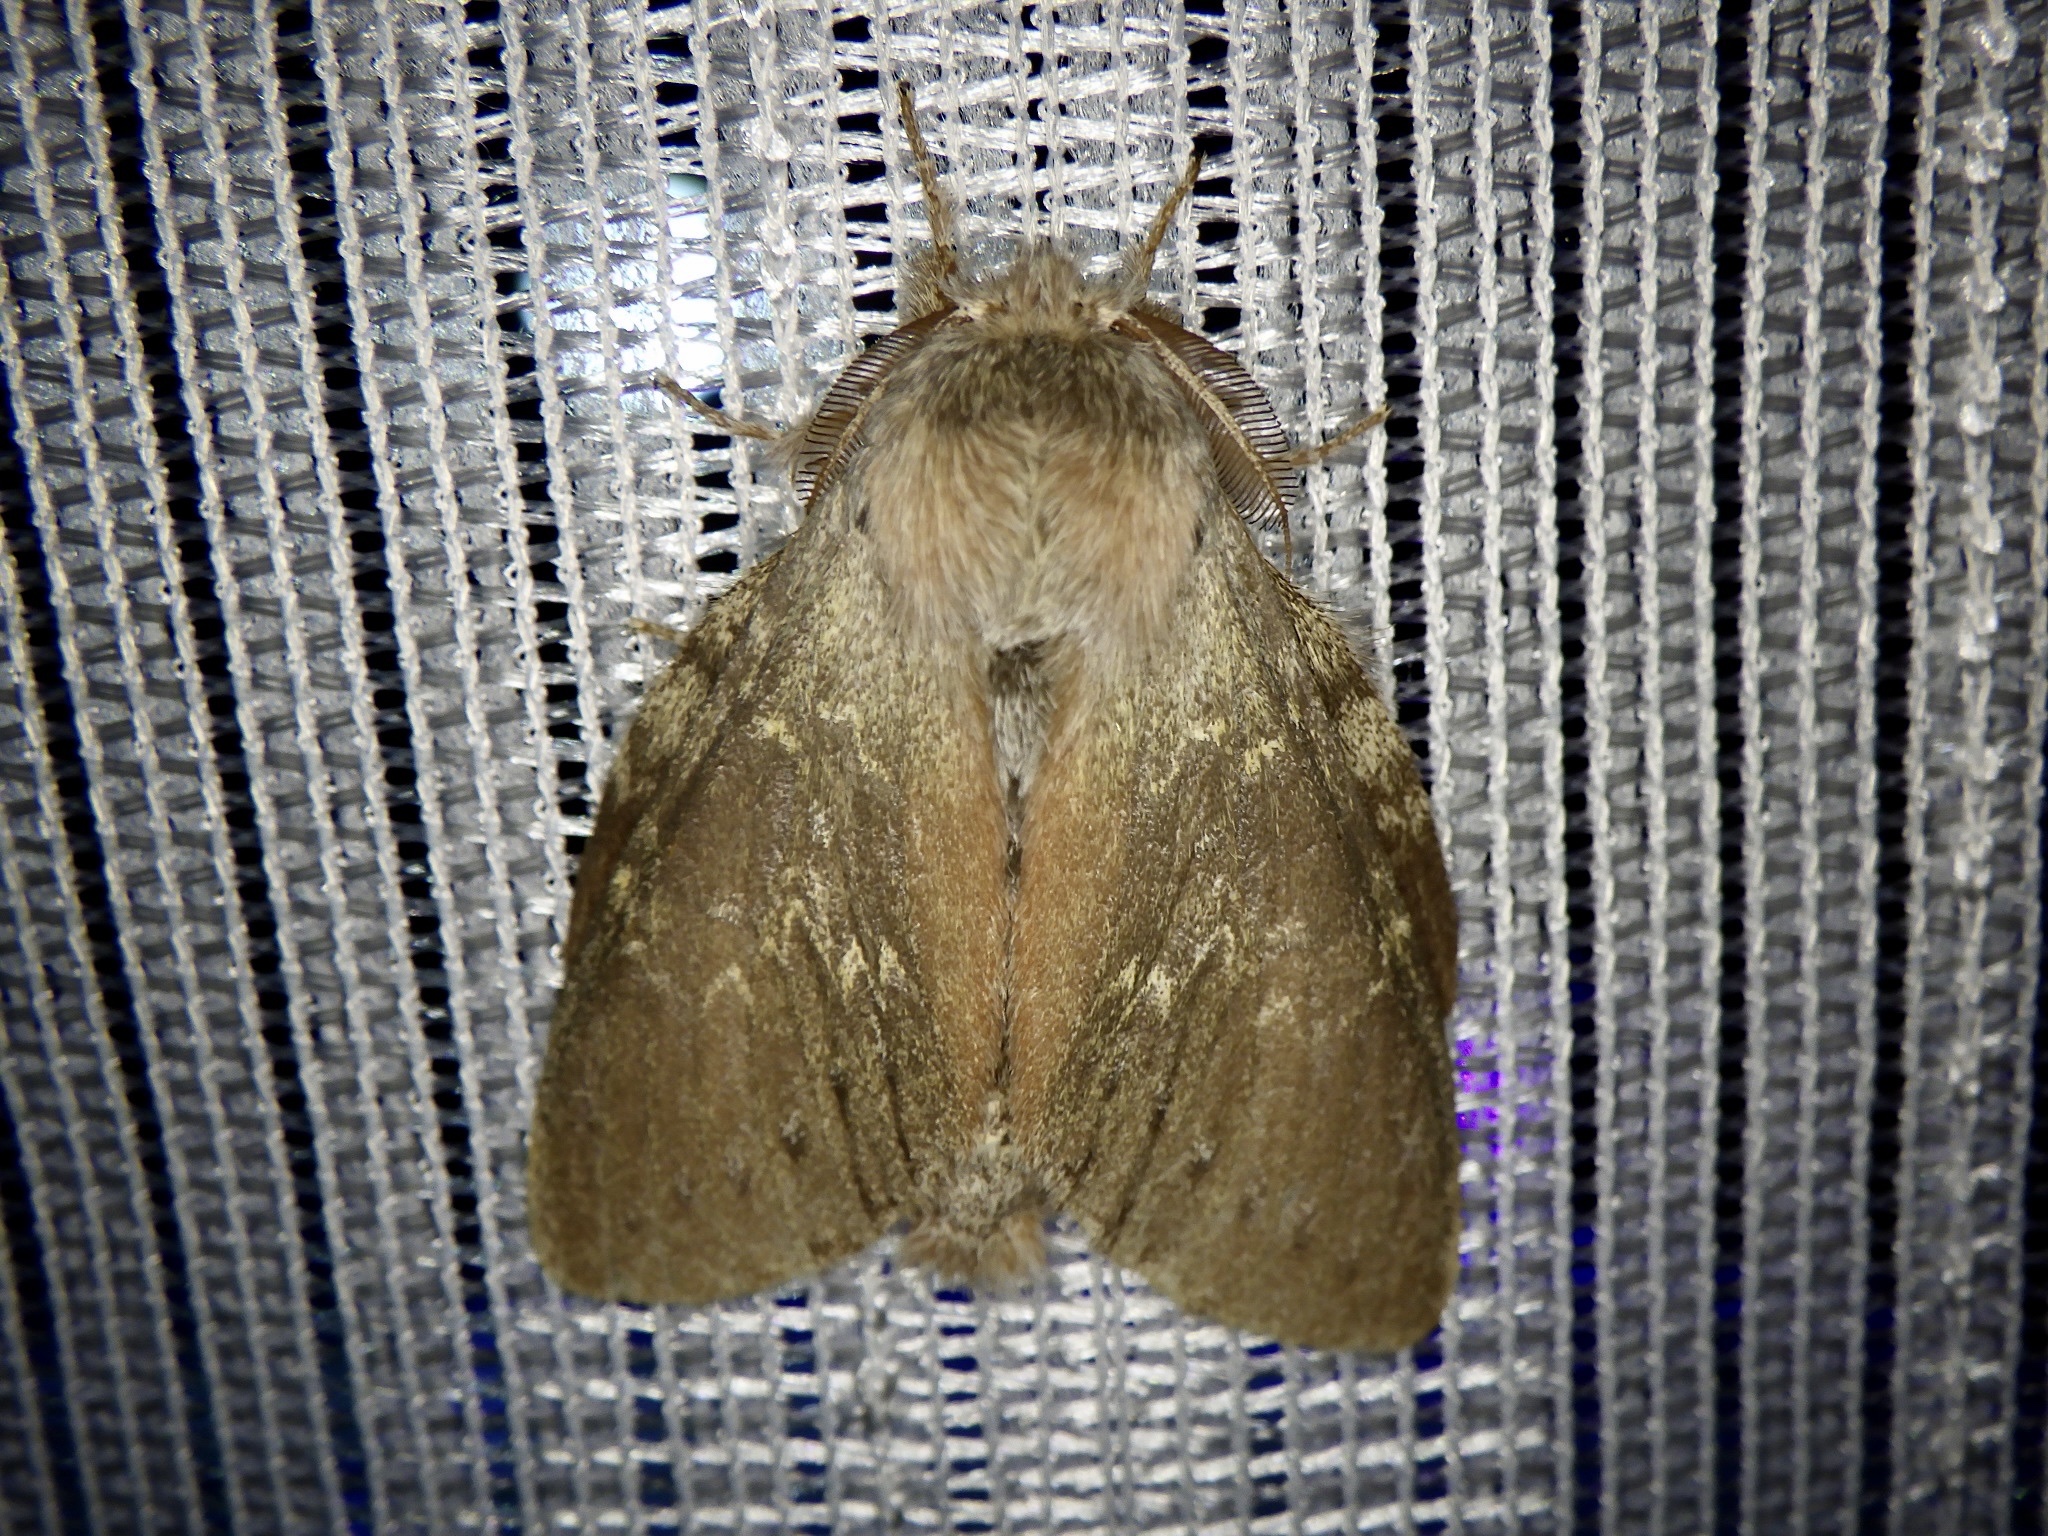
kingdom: Animalia
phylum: Arthropoda
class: Insecta
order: Lepidoptera
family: Notodontidae
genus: Stauropus
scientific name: Stauropus fagi
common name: Lobster moth
